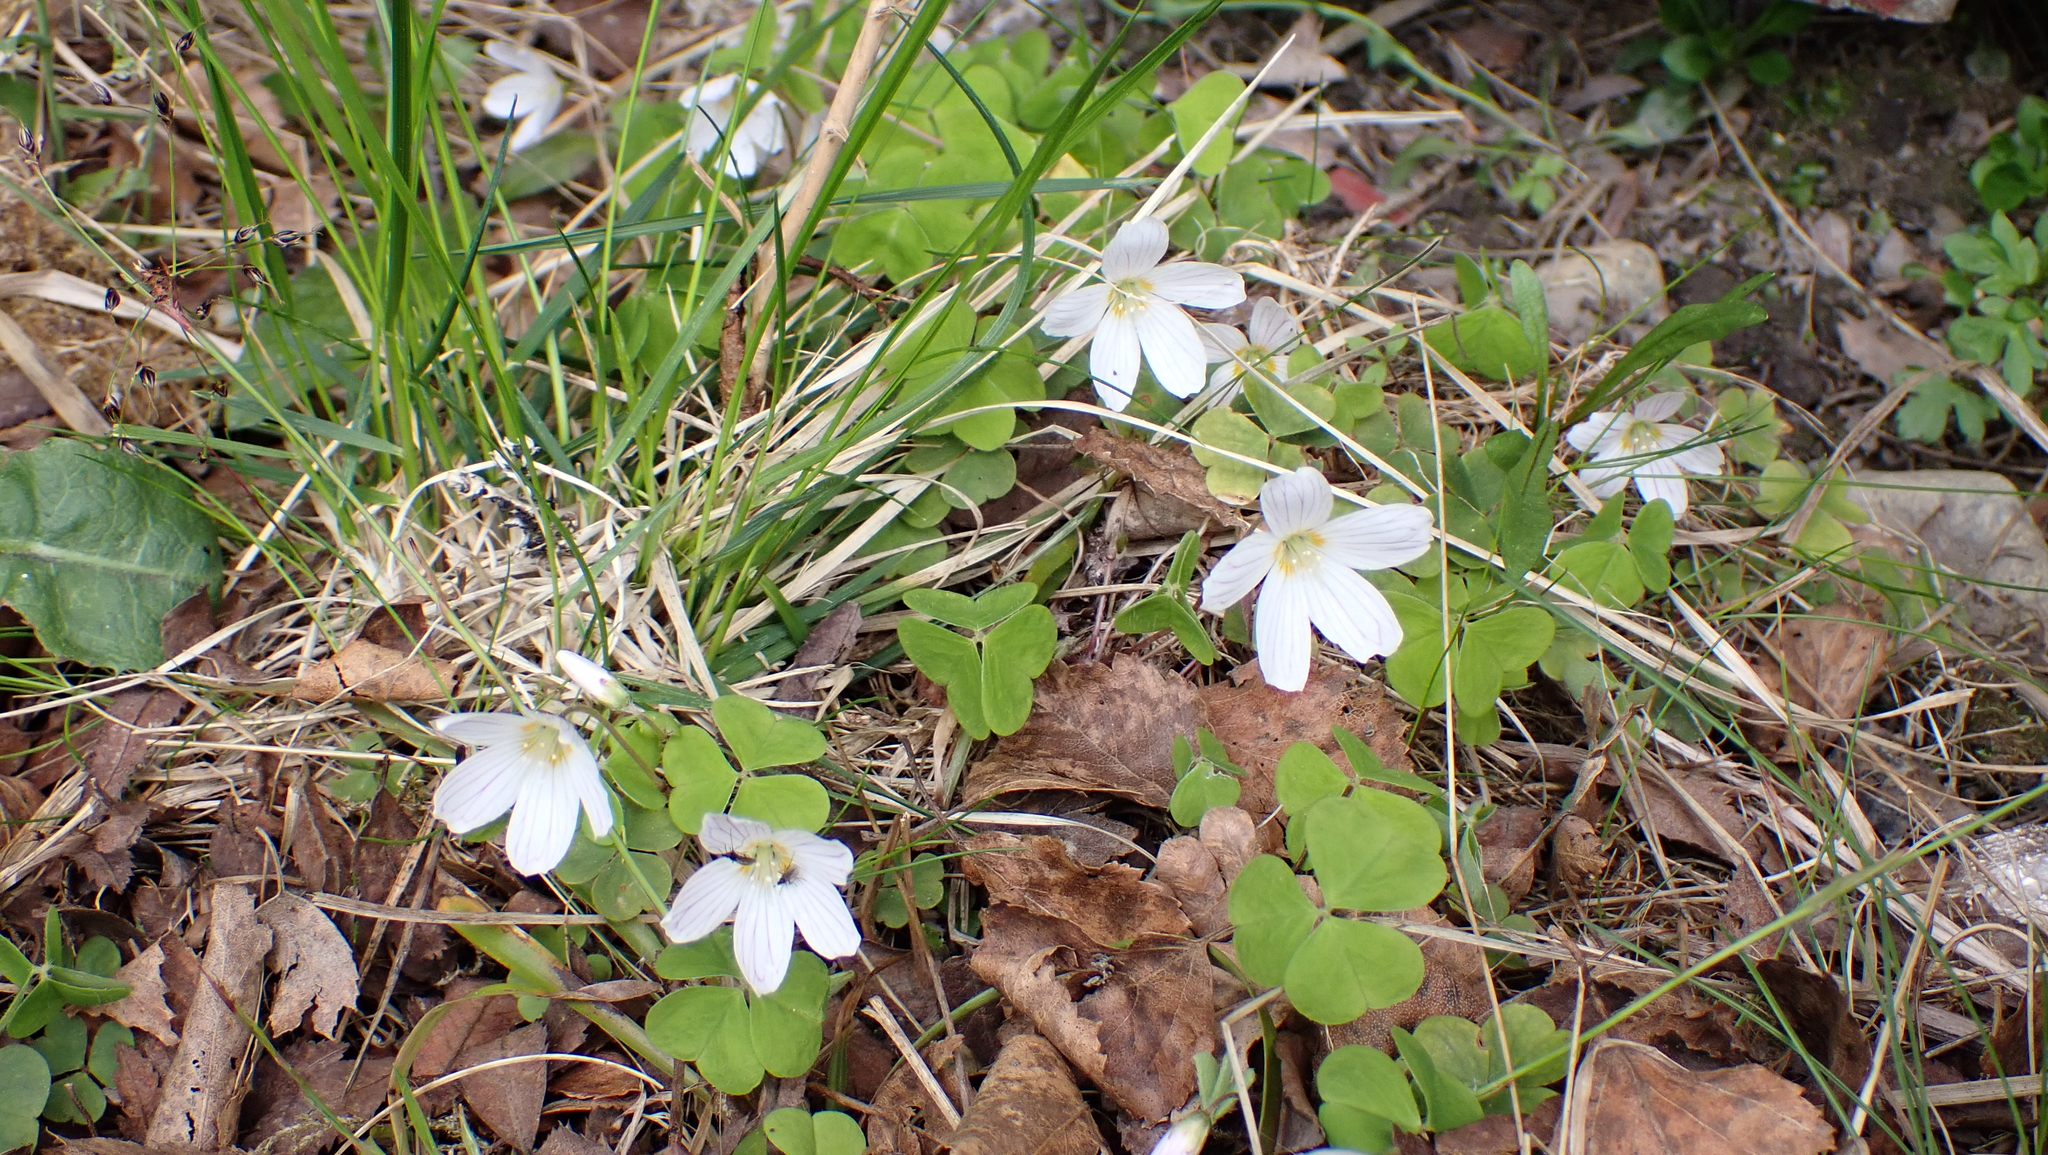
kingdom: Plantae
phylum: Tracheophyta
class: Magnoliopsida
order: Oxalidales
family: Oxalidaceae
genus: Oxalis
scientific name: Oxalis acetosella
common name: Wood-sorrel
